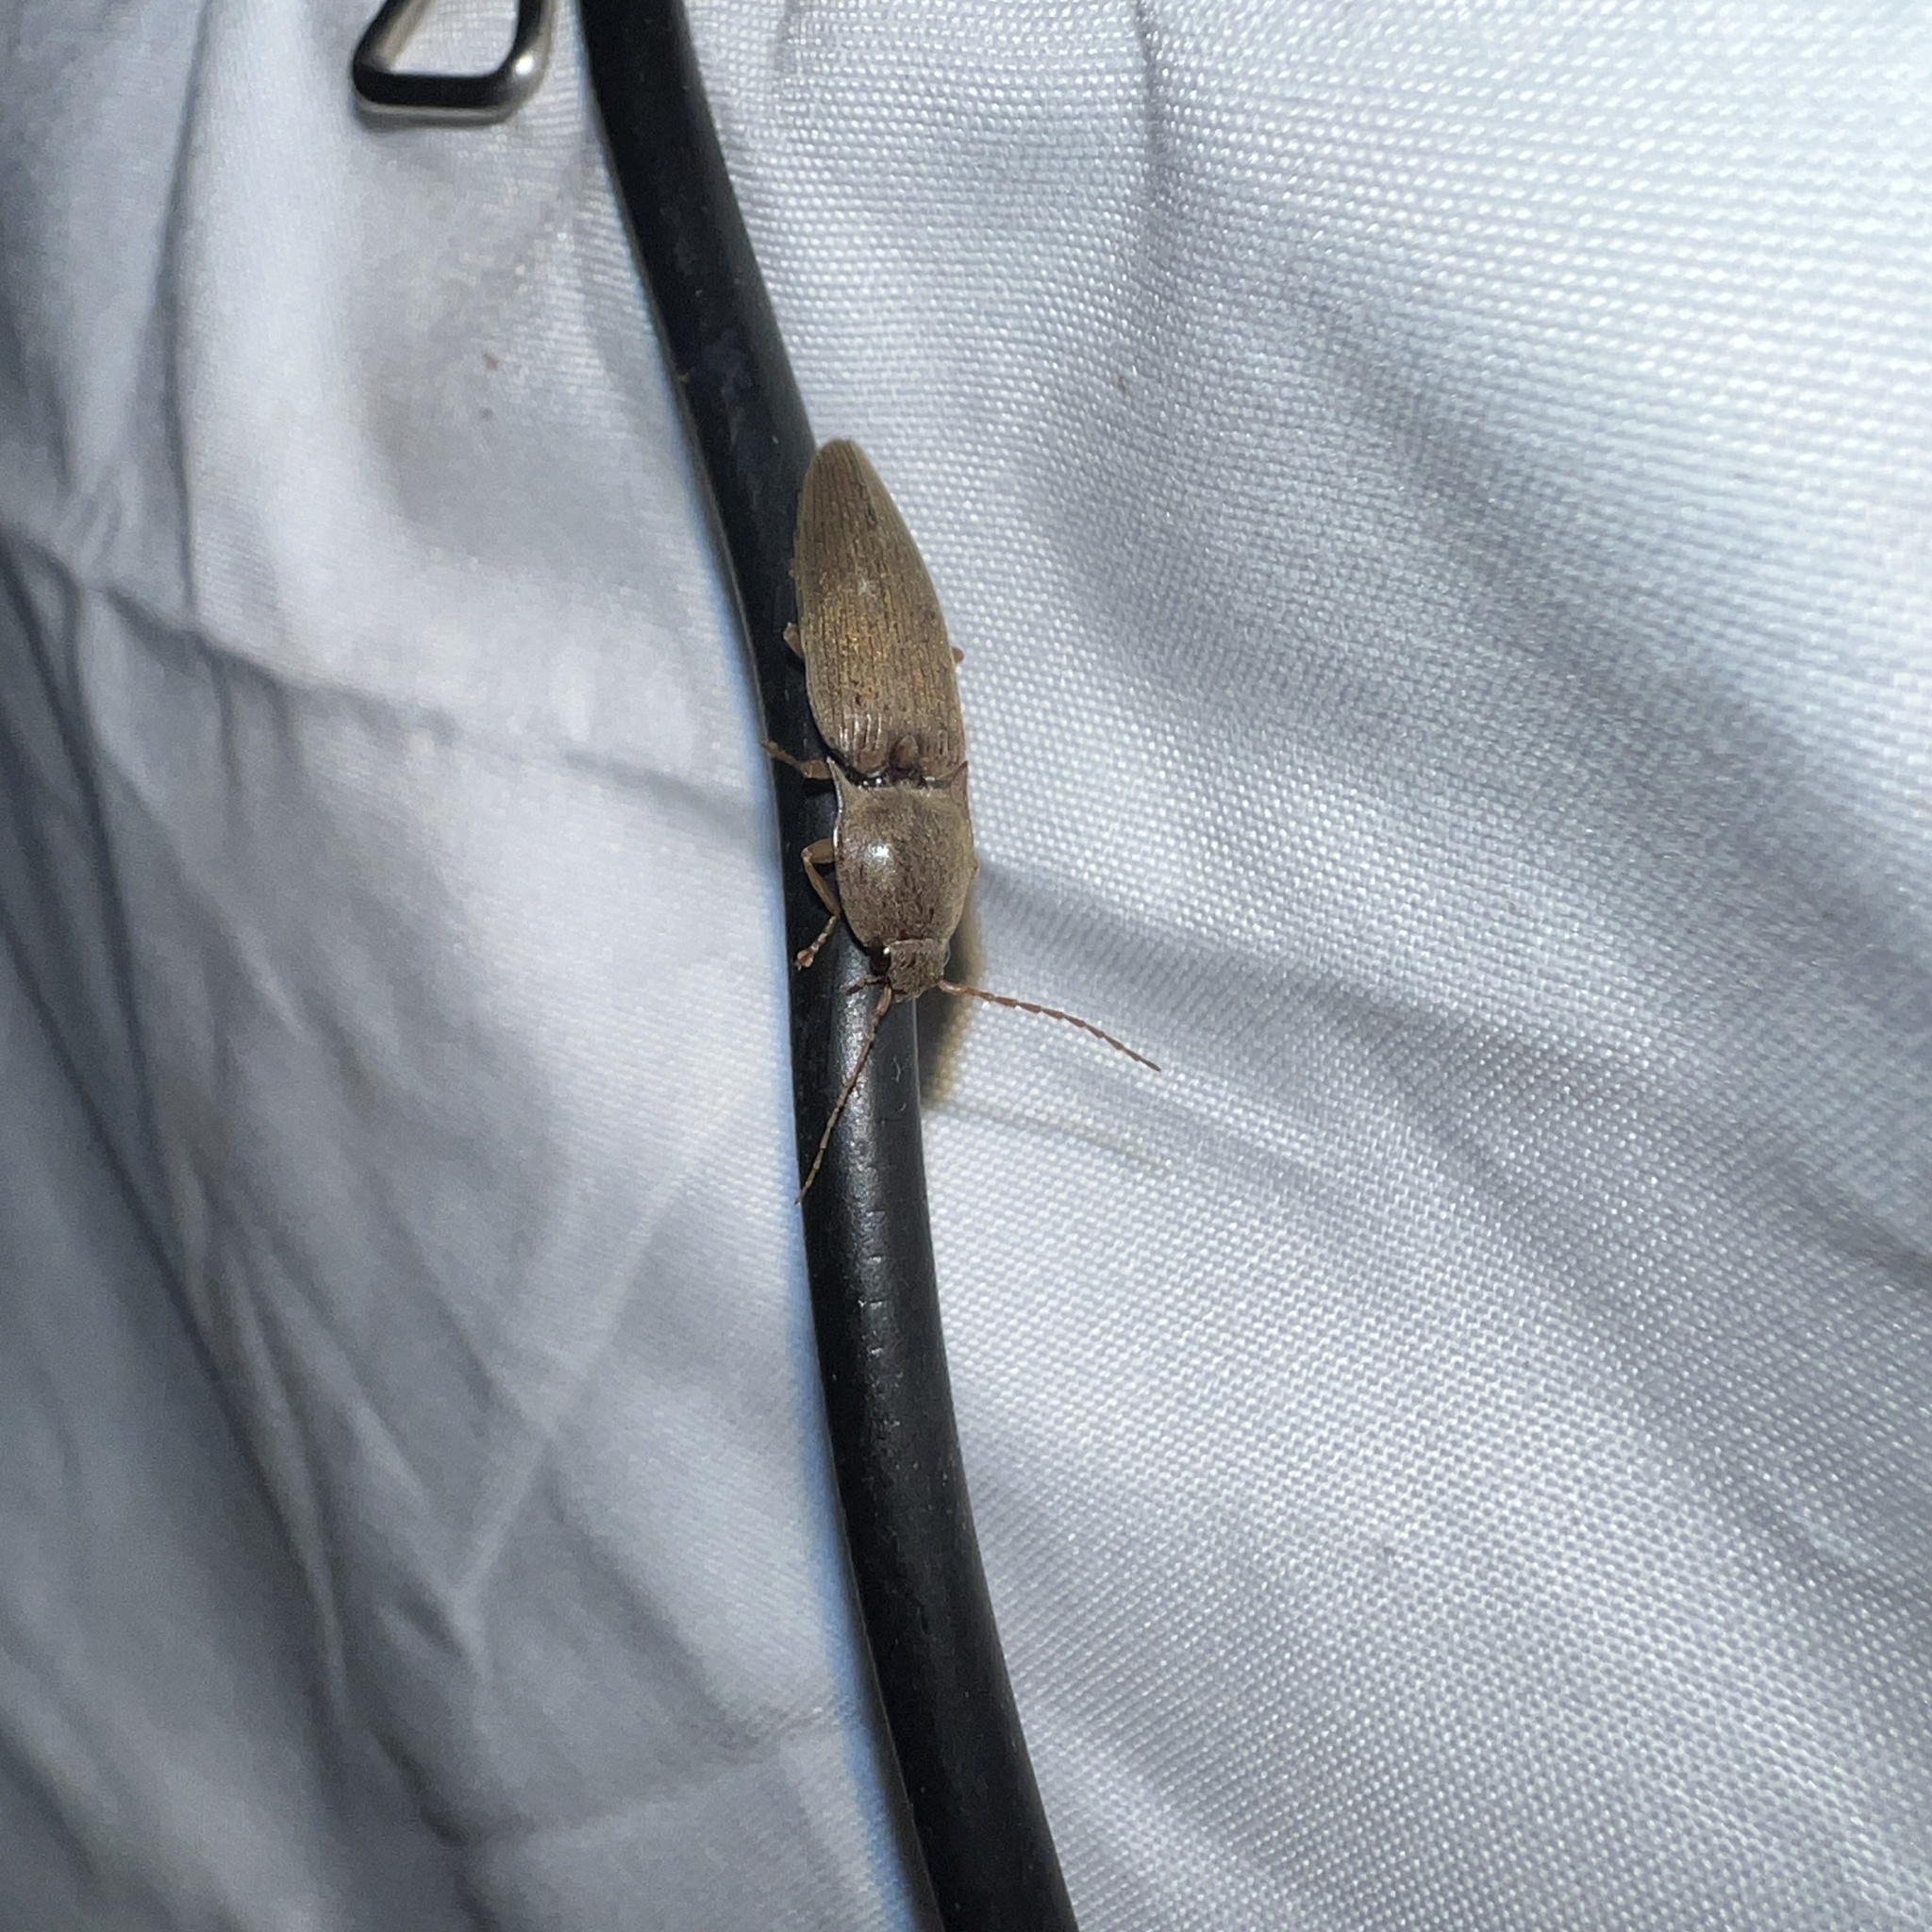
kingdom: Animalia
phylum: Arthropoda
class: Insecta
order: Coleoptera
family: Elateridae
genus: Monocrepidius
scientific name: Monocrepidius lividus
